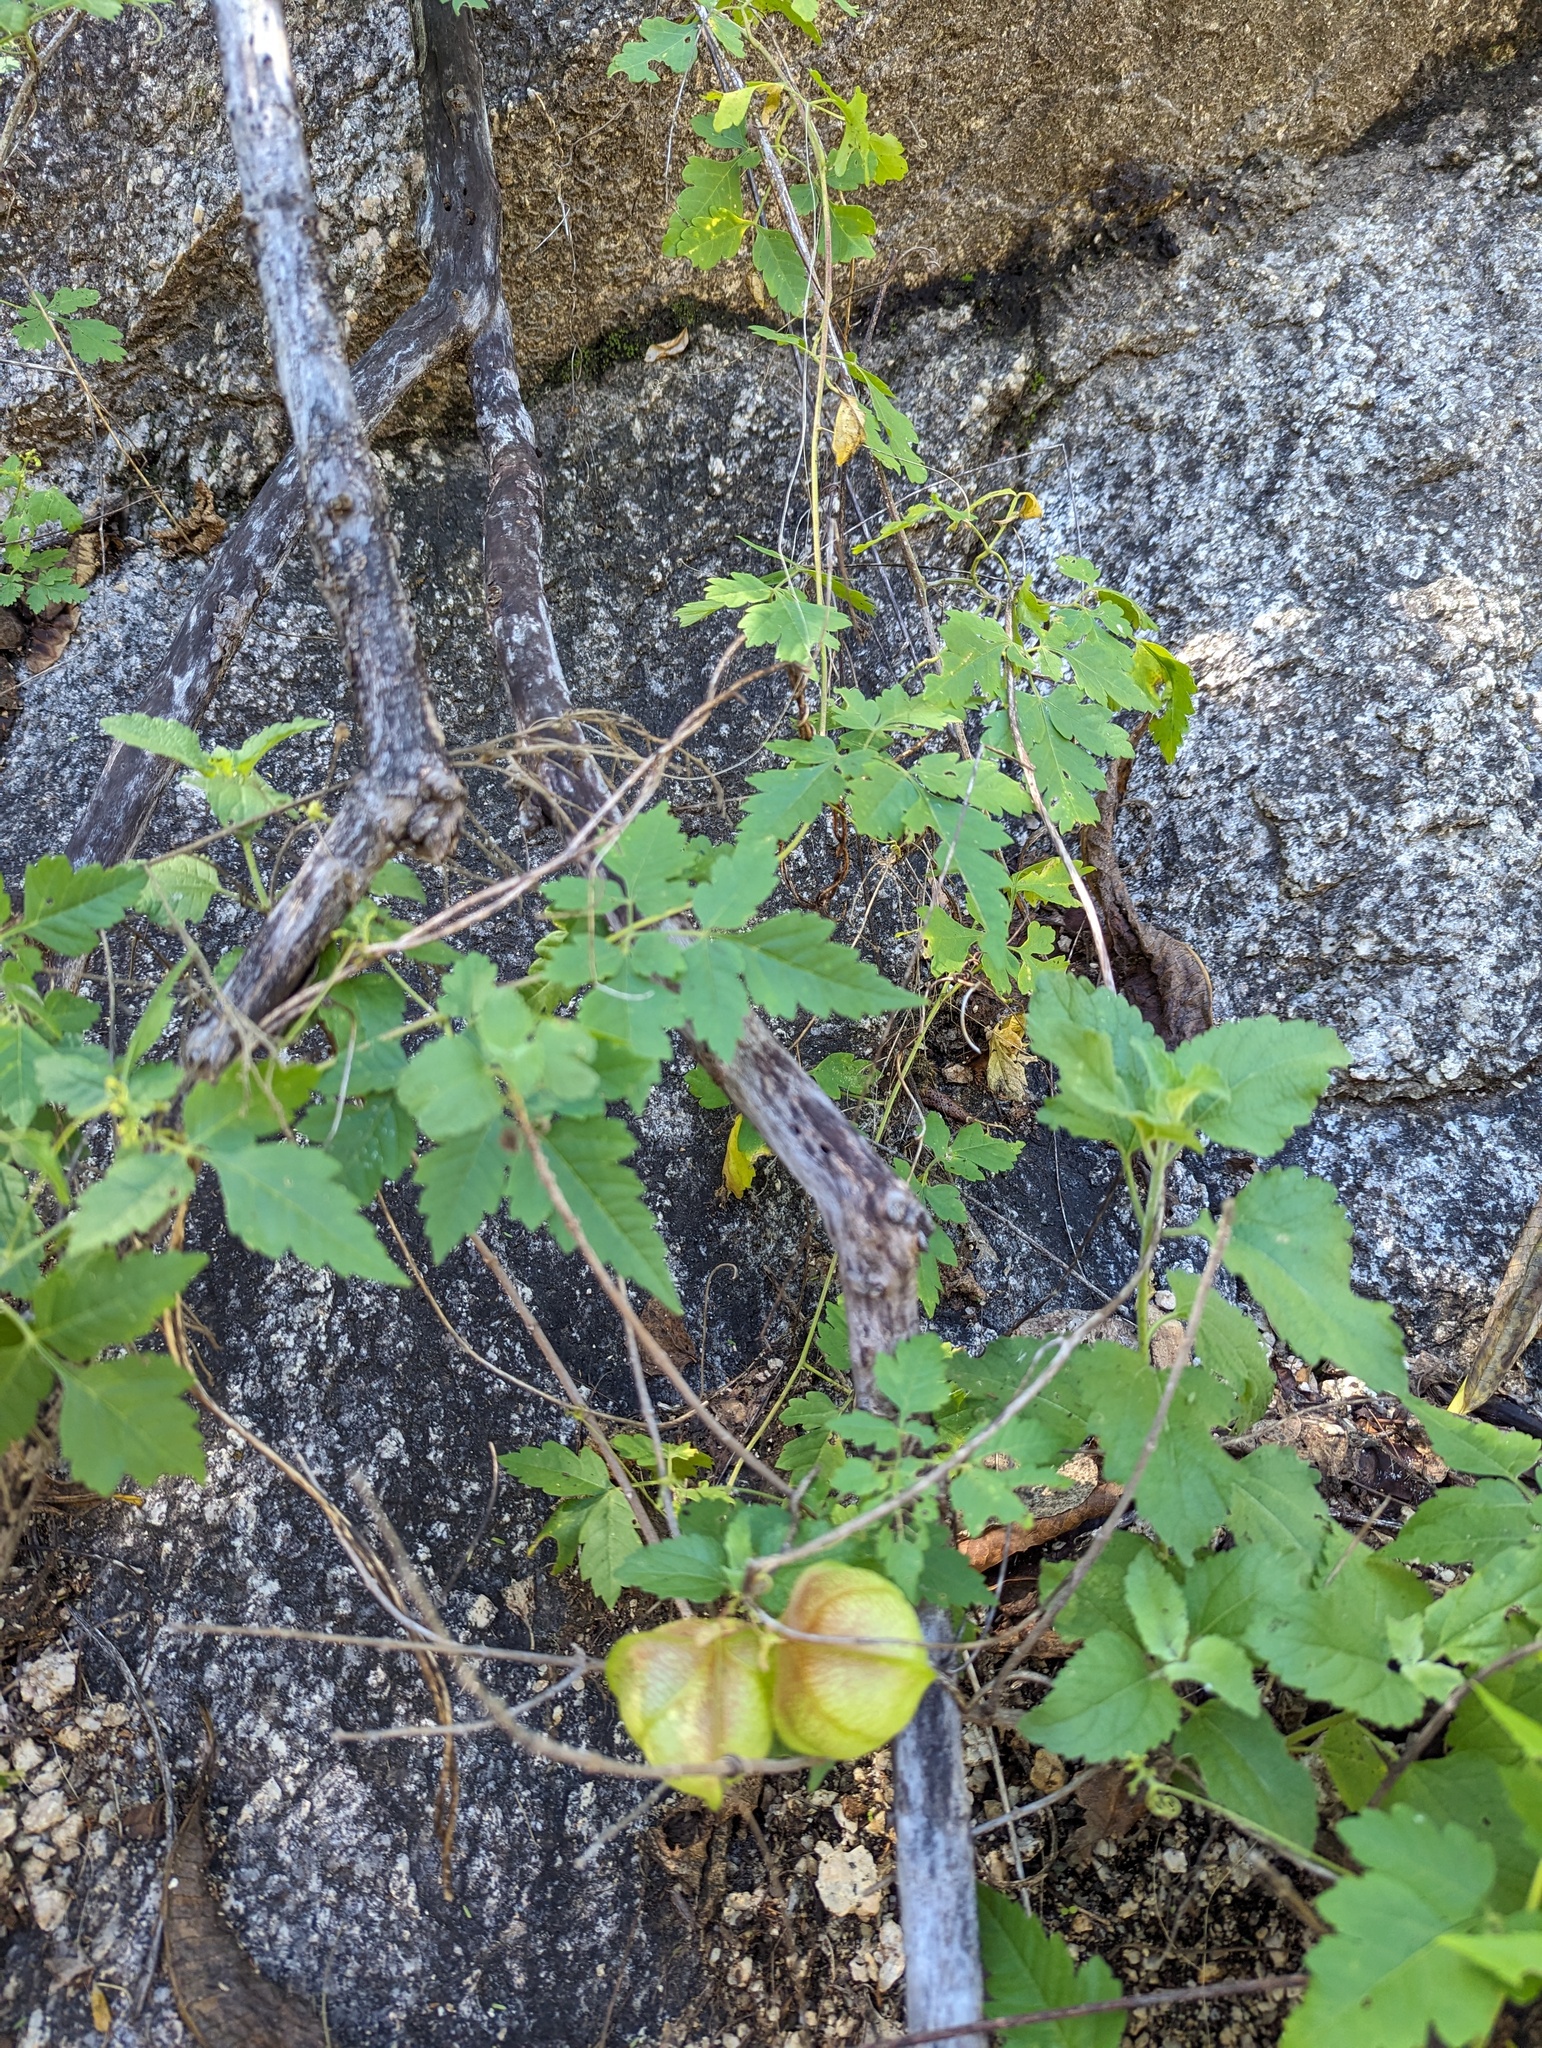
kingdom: Plantae
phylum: Tracheophyta
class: Magnoliopsida
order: Sapindales
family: Sapindaceae
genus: Cardiospermum
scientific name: Cardiospermum corindum
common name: Faux persil
